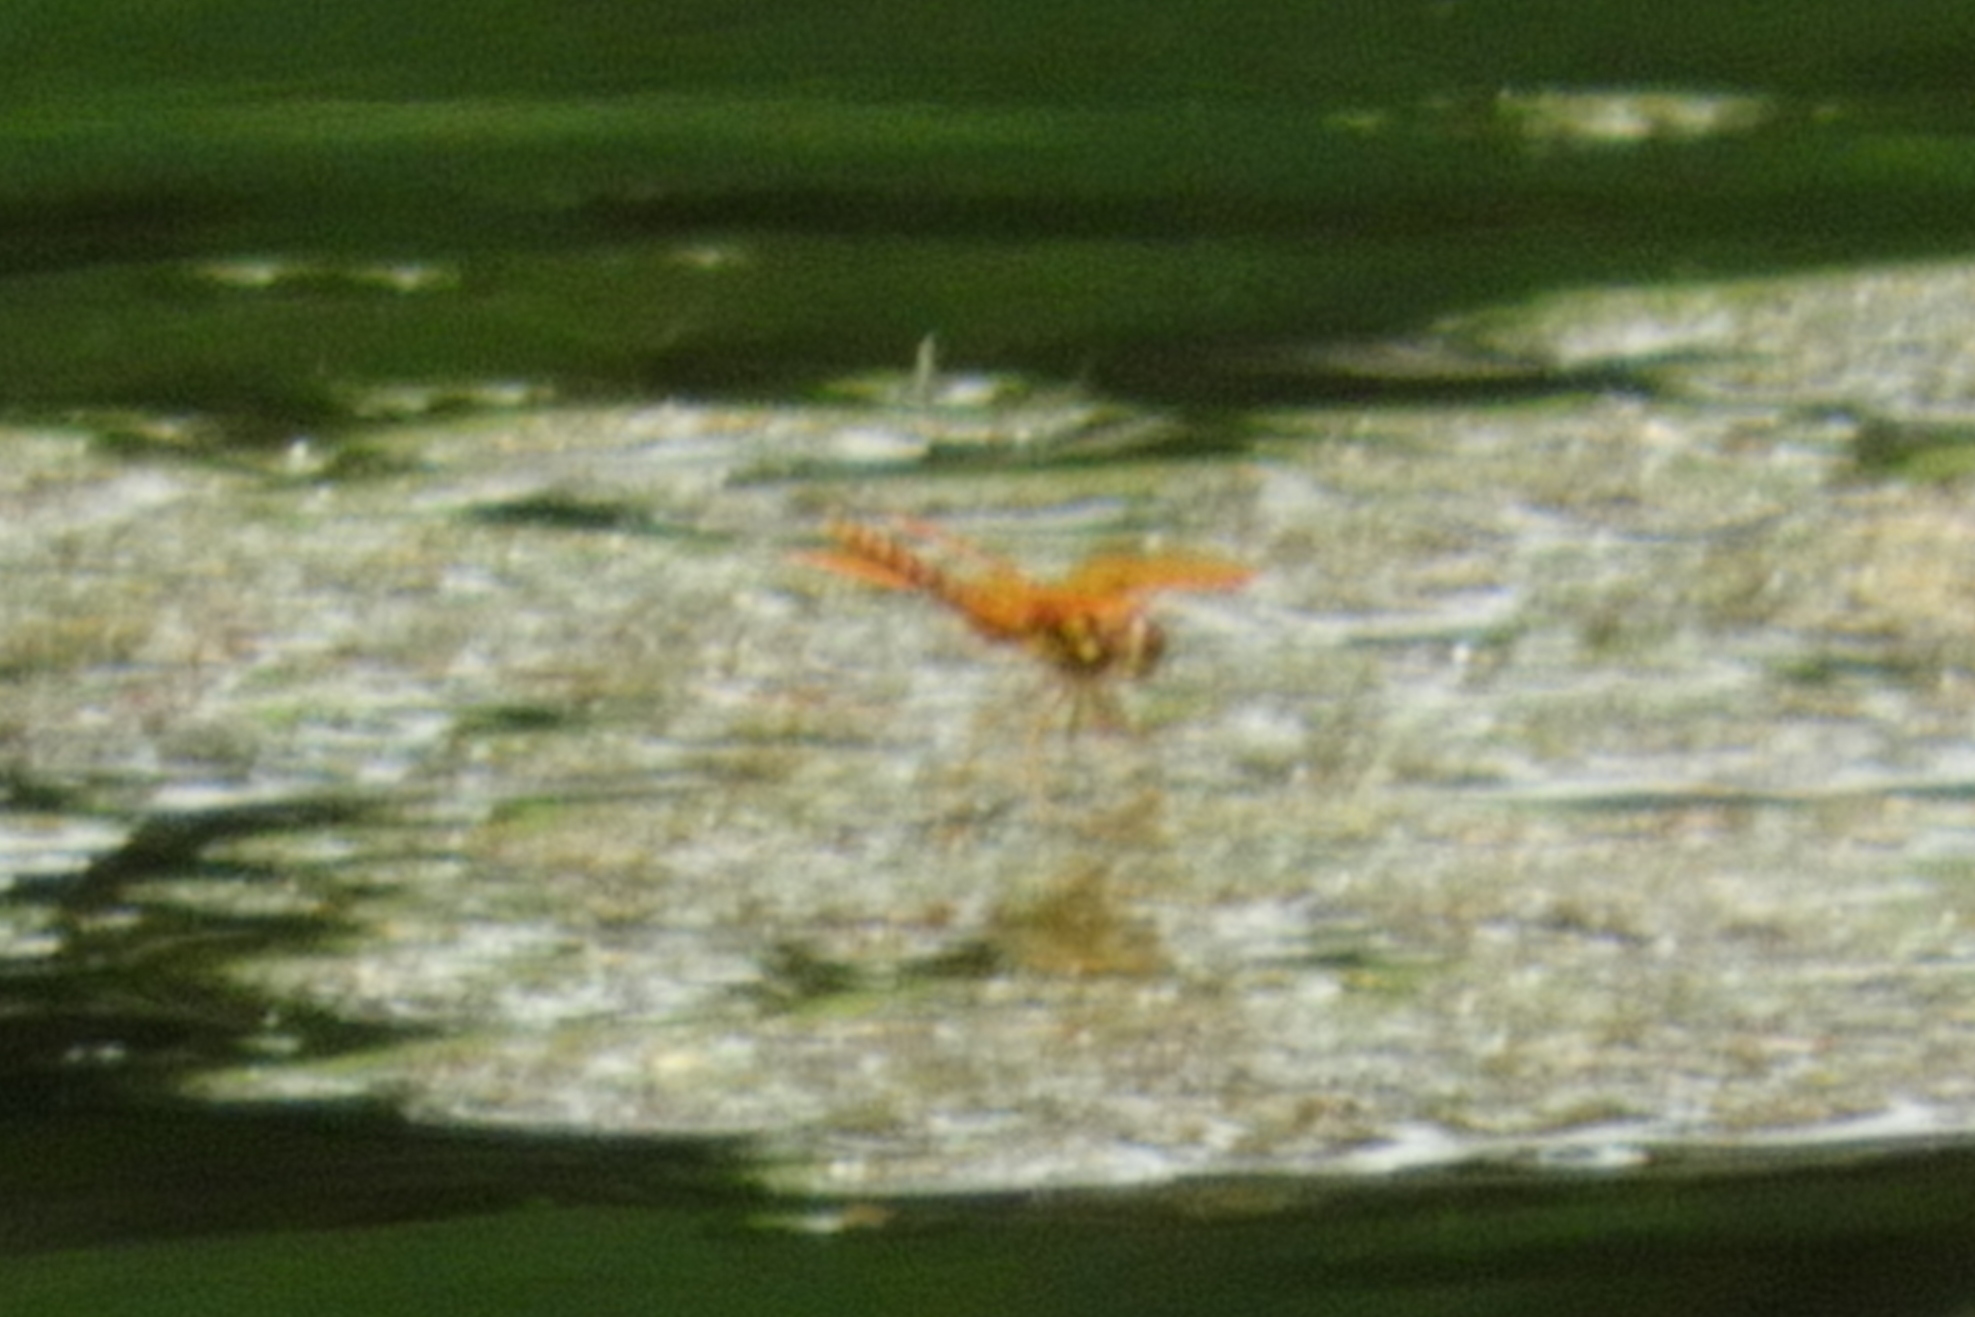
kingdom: Animalia
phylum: Arthropoda
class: Insecta
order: Odonata
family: Libellulidae
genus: Perithemis
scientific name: Perithemis tenera
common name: Eastern amberwing
